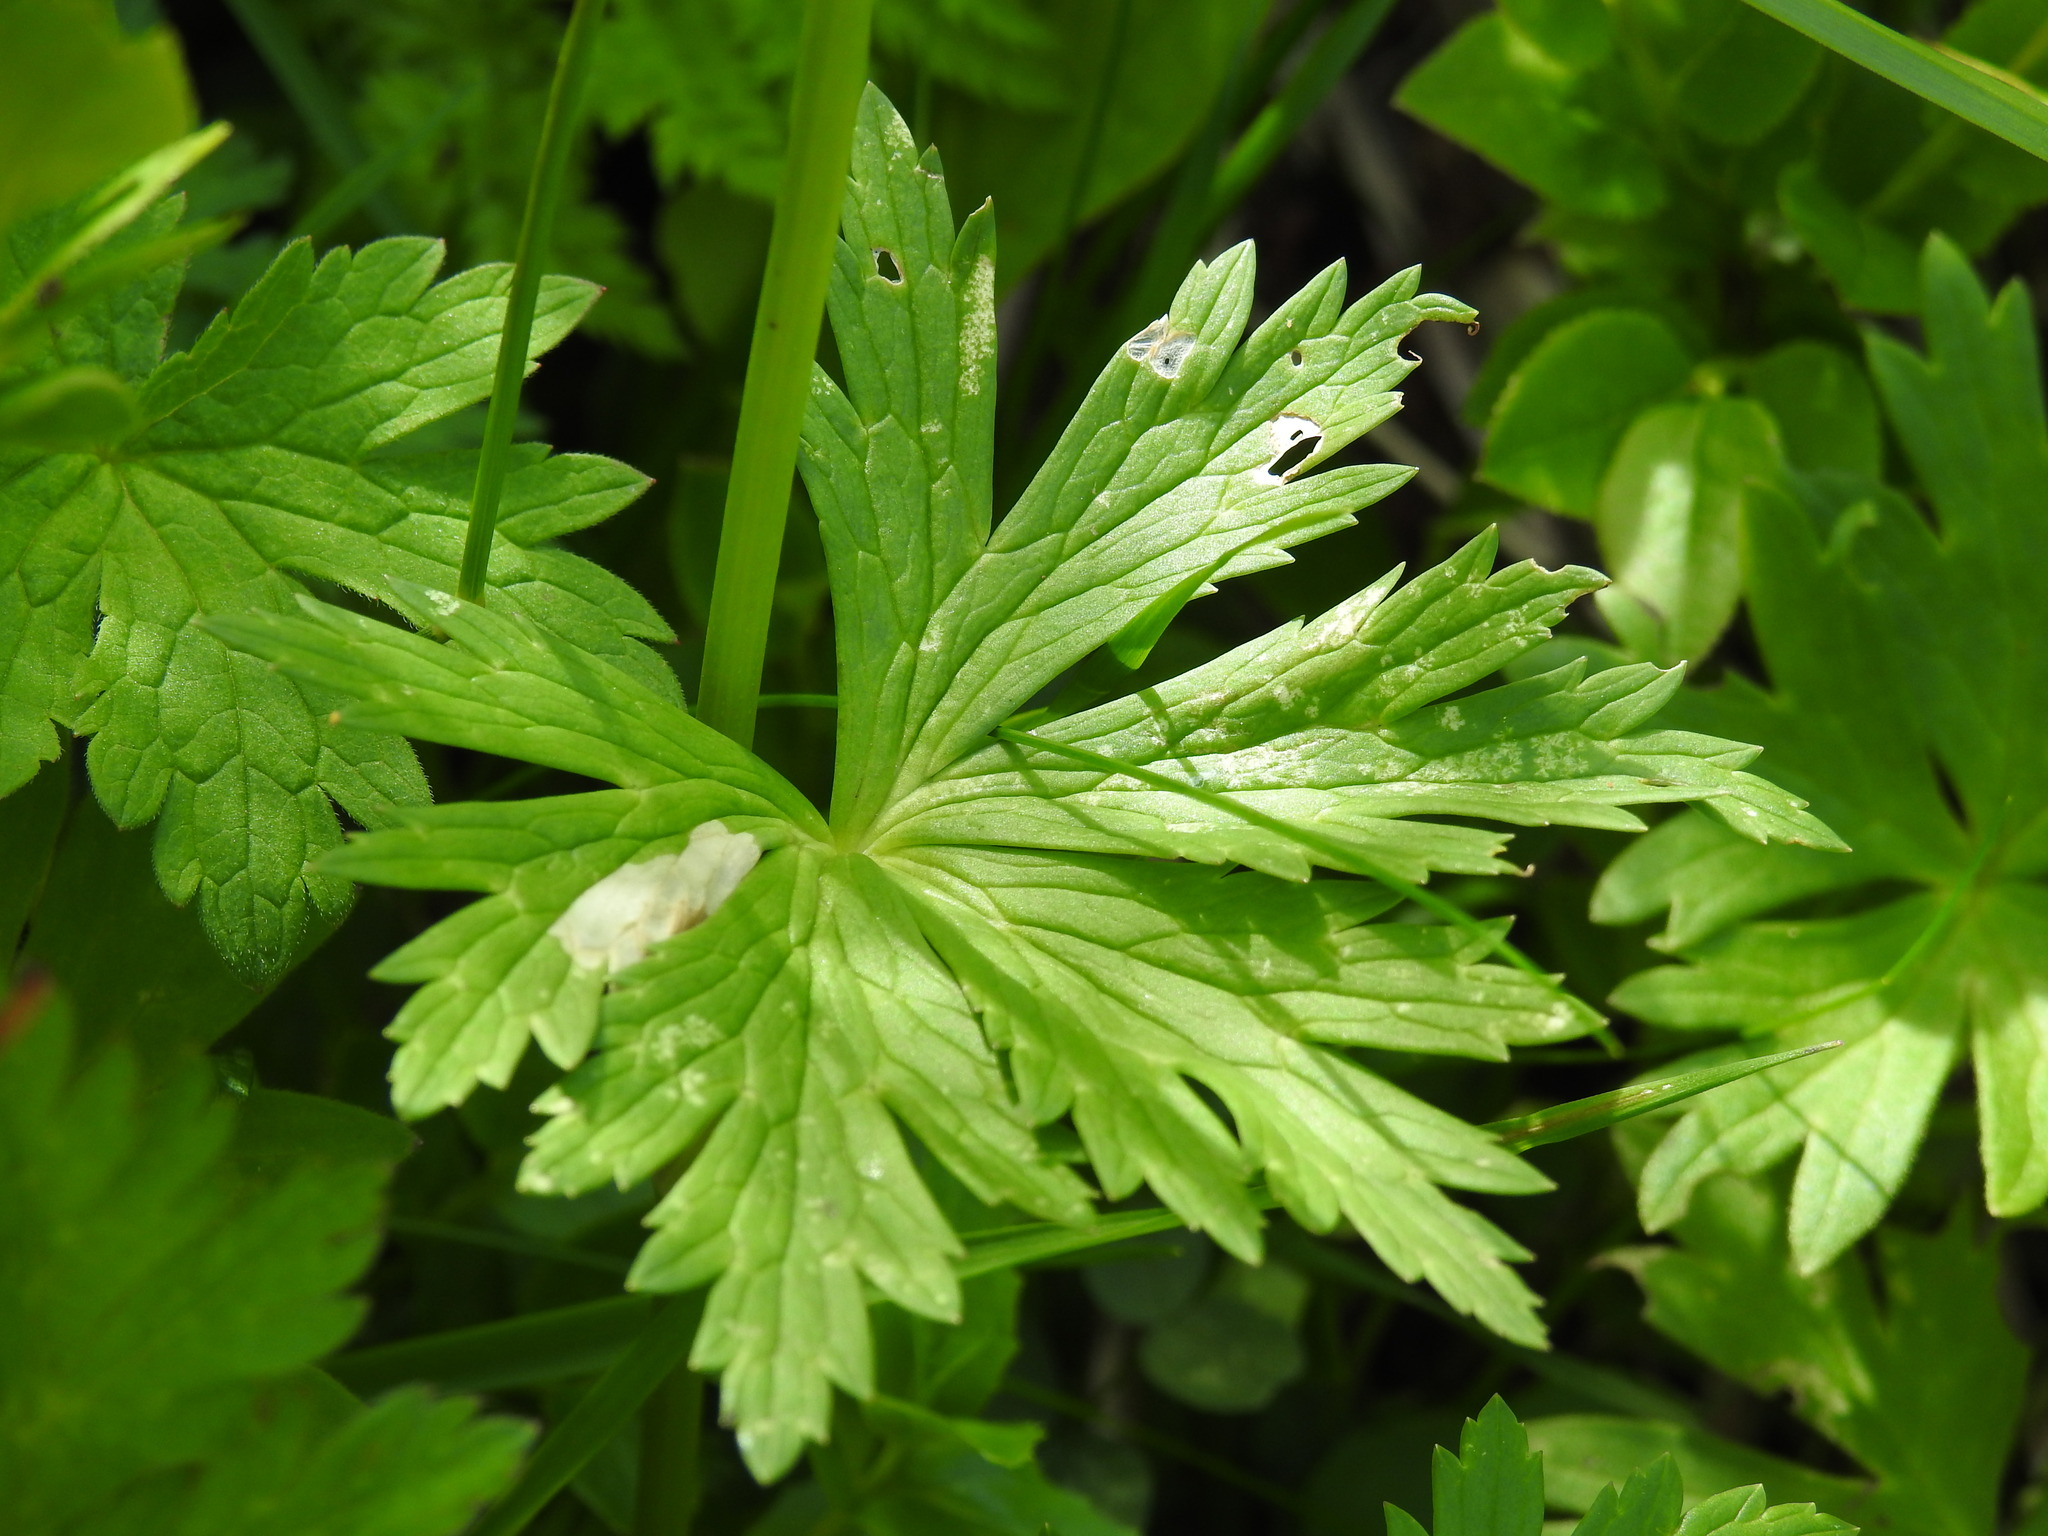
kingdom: Plantae
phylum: Tracheophyta
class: Magnoliopsida
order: Ranunculales
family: Ranunculaceae
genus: Trollius
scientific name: Trollius europaeus
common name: European globeflower
